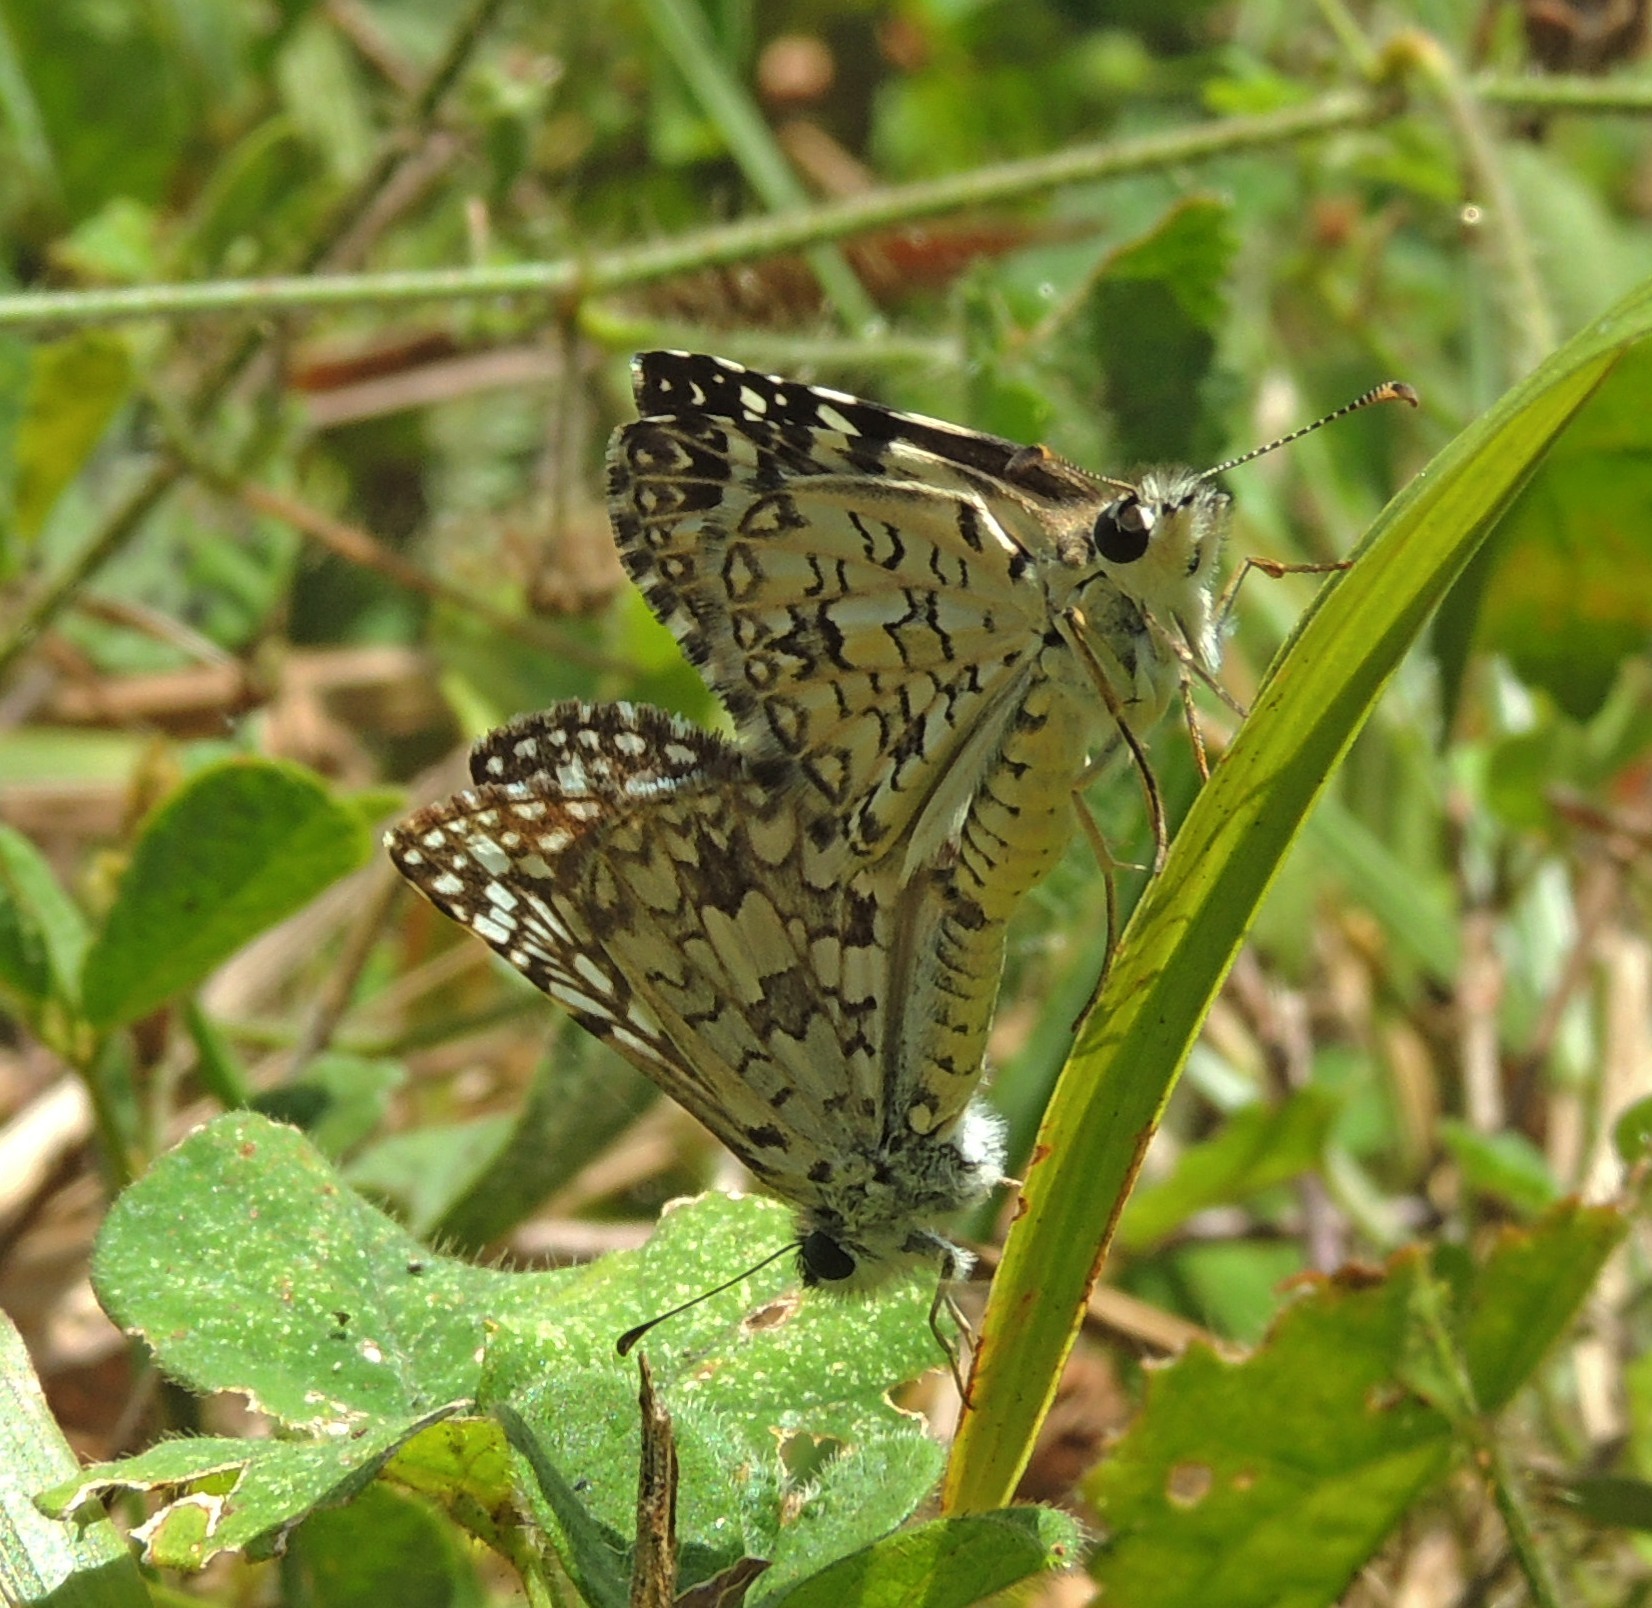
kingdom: Animalia
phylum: Arthropoda
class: Insecta
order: Lepidoptera
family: Hesperiidae
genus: Pyrgus
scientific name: Pyrgus oileus
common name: Tropical checkered-skipper
